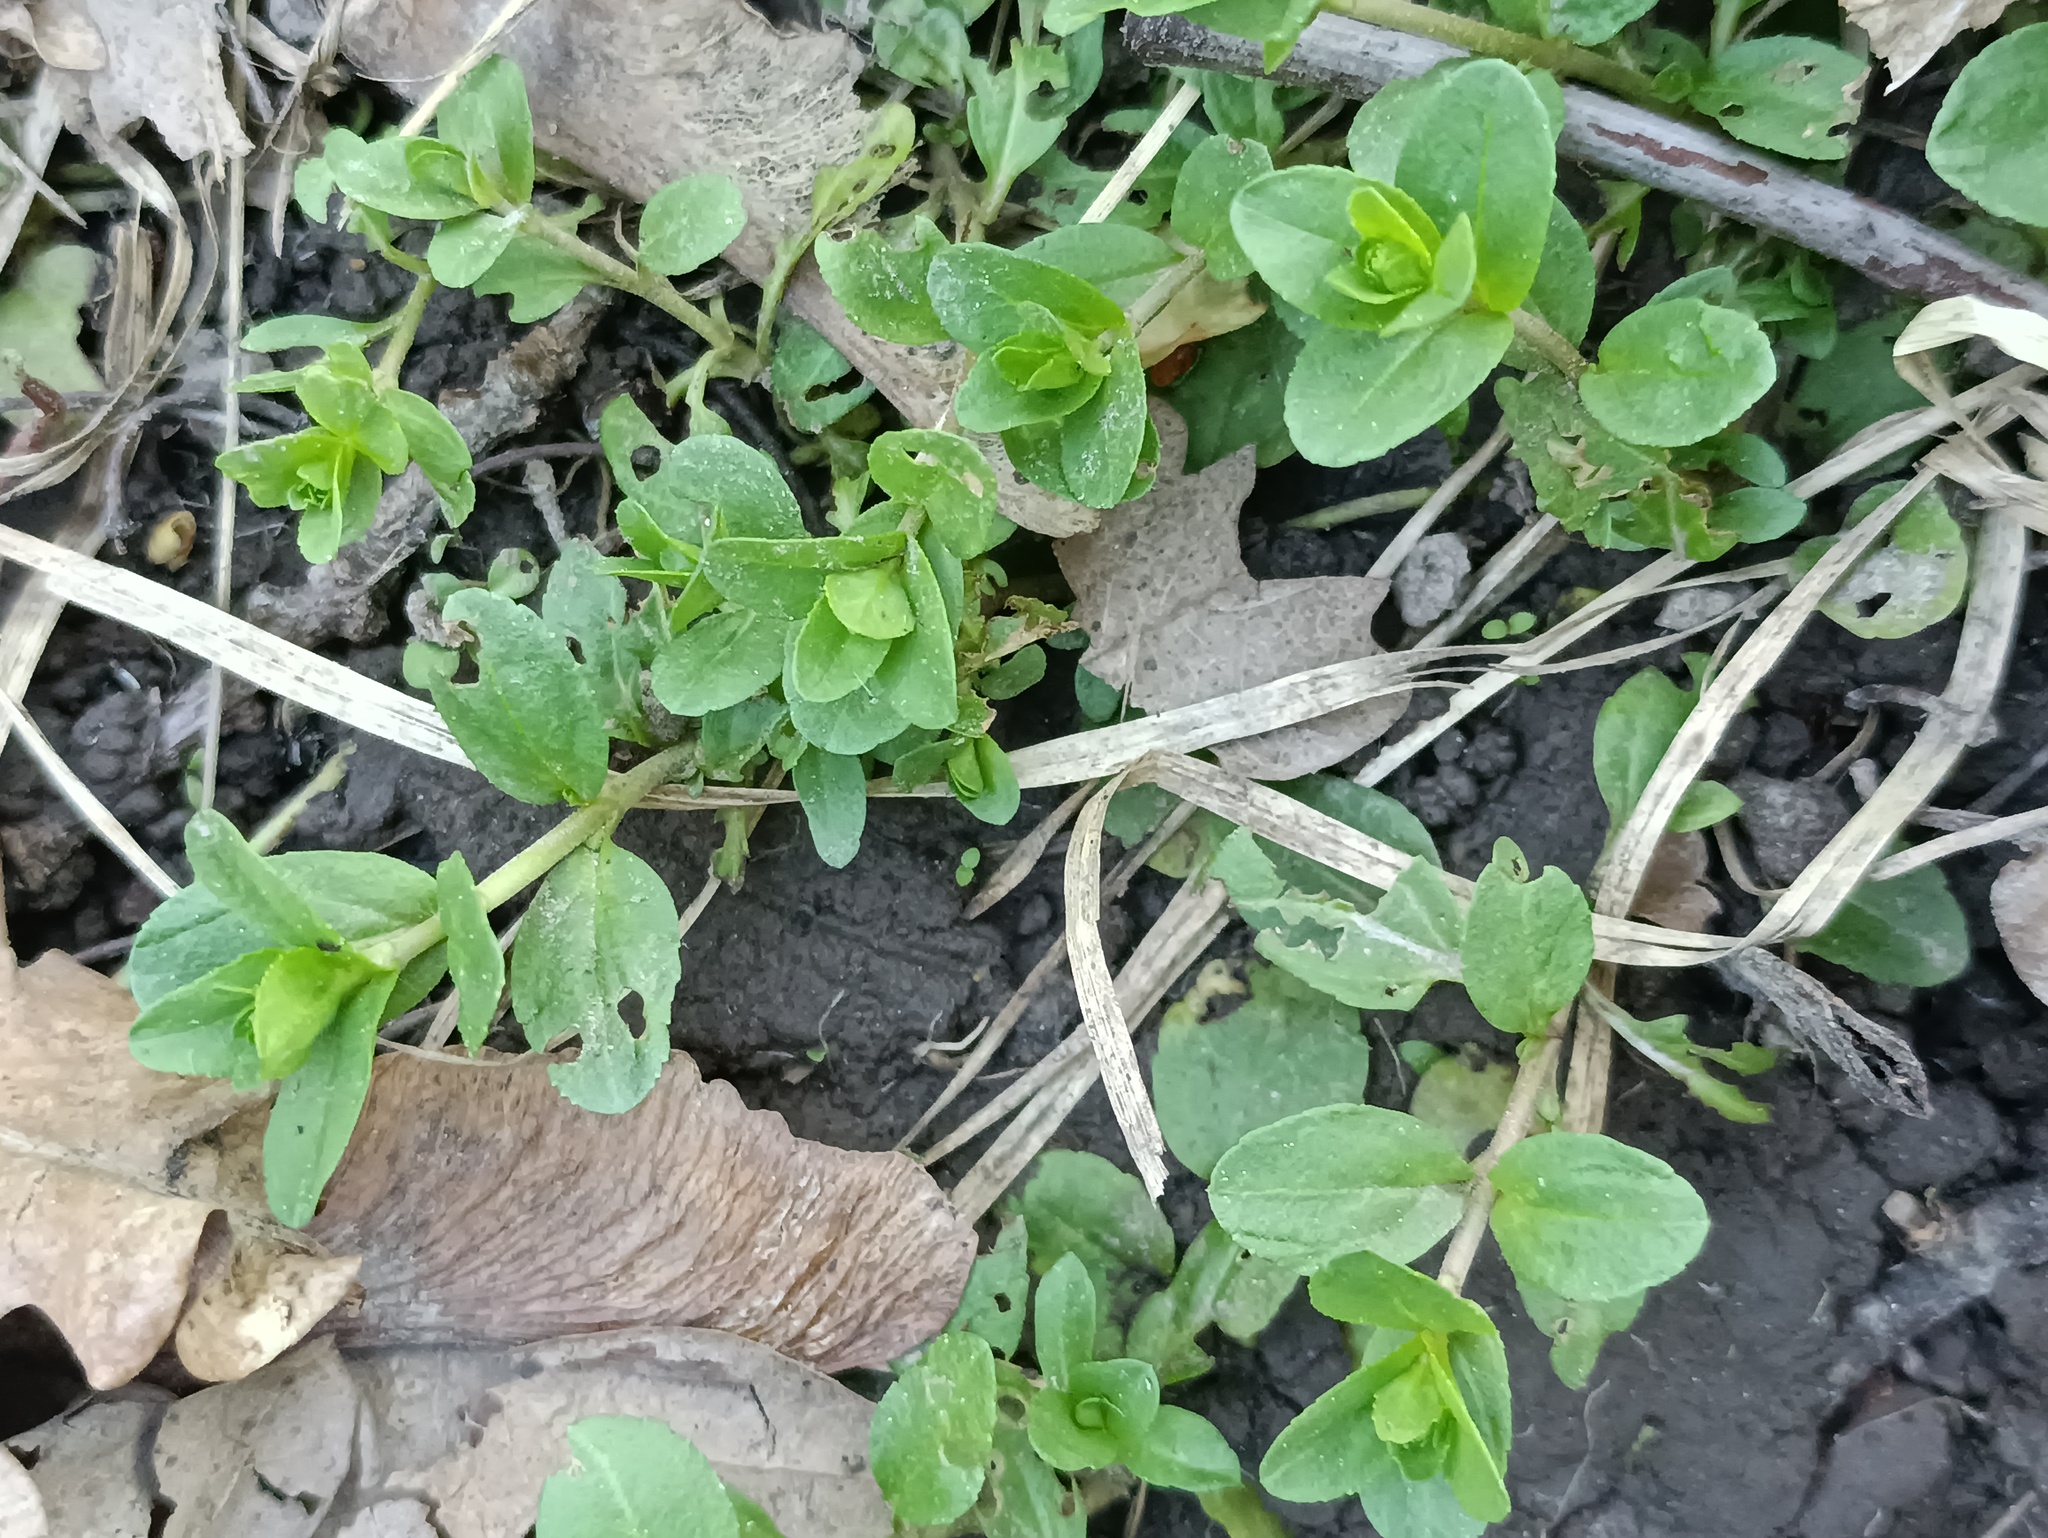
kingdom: Plantae
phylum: Tracheophyta
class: Magnoliopsida
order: Lamiales
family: Plantaginaceae
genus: Veronica
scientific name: Veronica serpyllifolia
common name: Thyme-leaved speedwell
